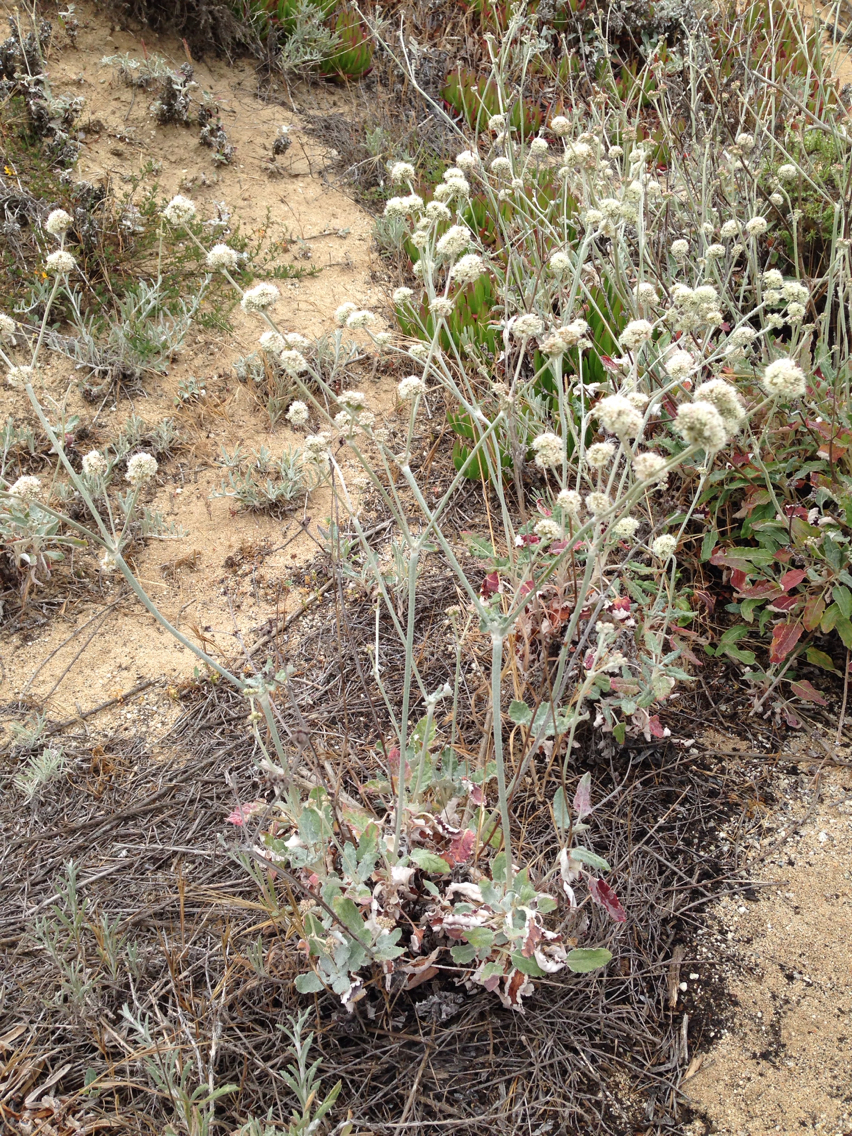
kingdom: Plantae
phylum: Tracheophyta
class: Magnoliopsida
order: Caryophyllales
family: Polygonaceae
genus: Eriogonum
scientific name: Eriogonum latifolium
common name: Seaside wild buckwheat
